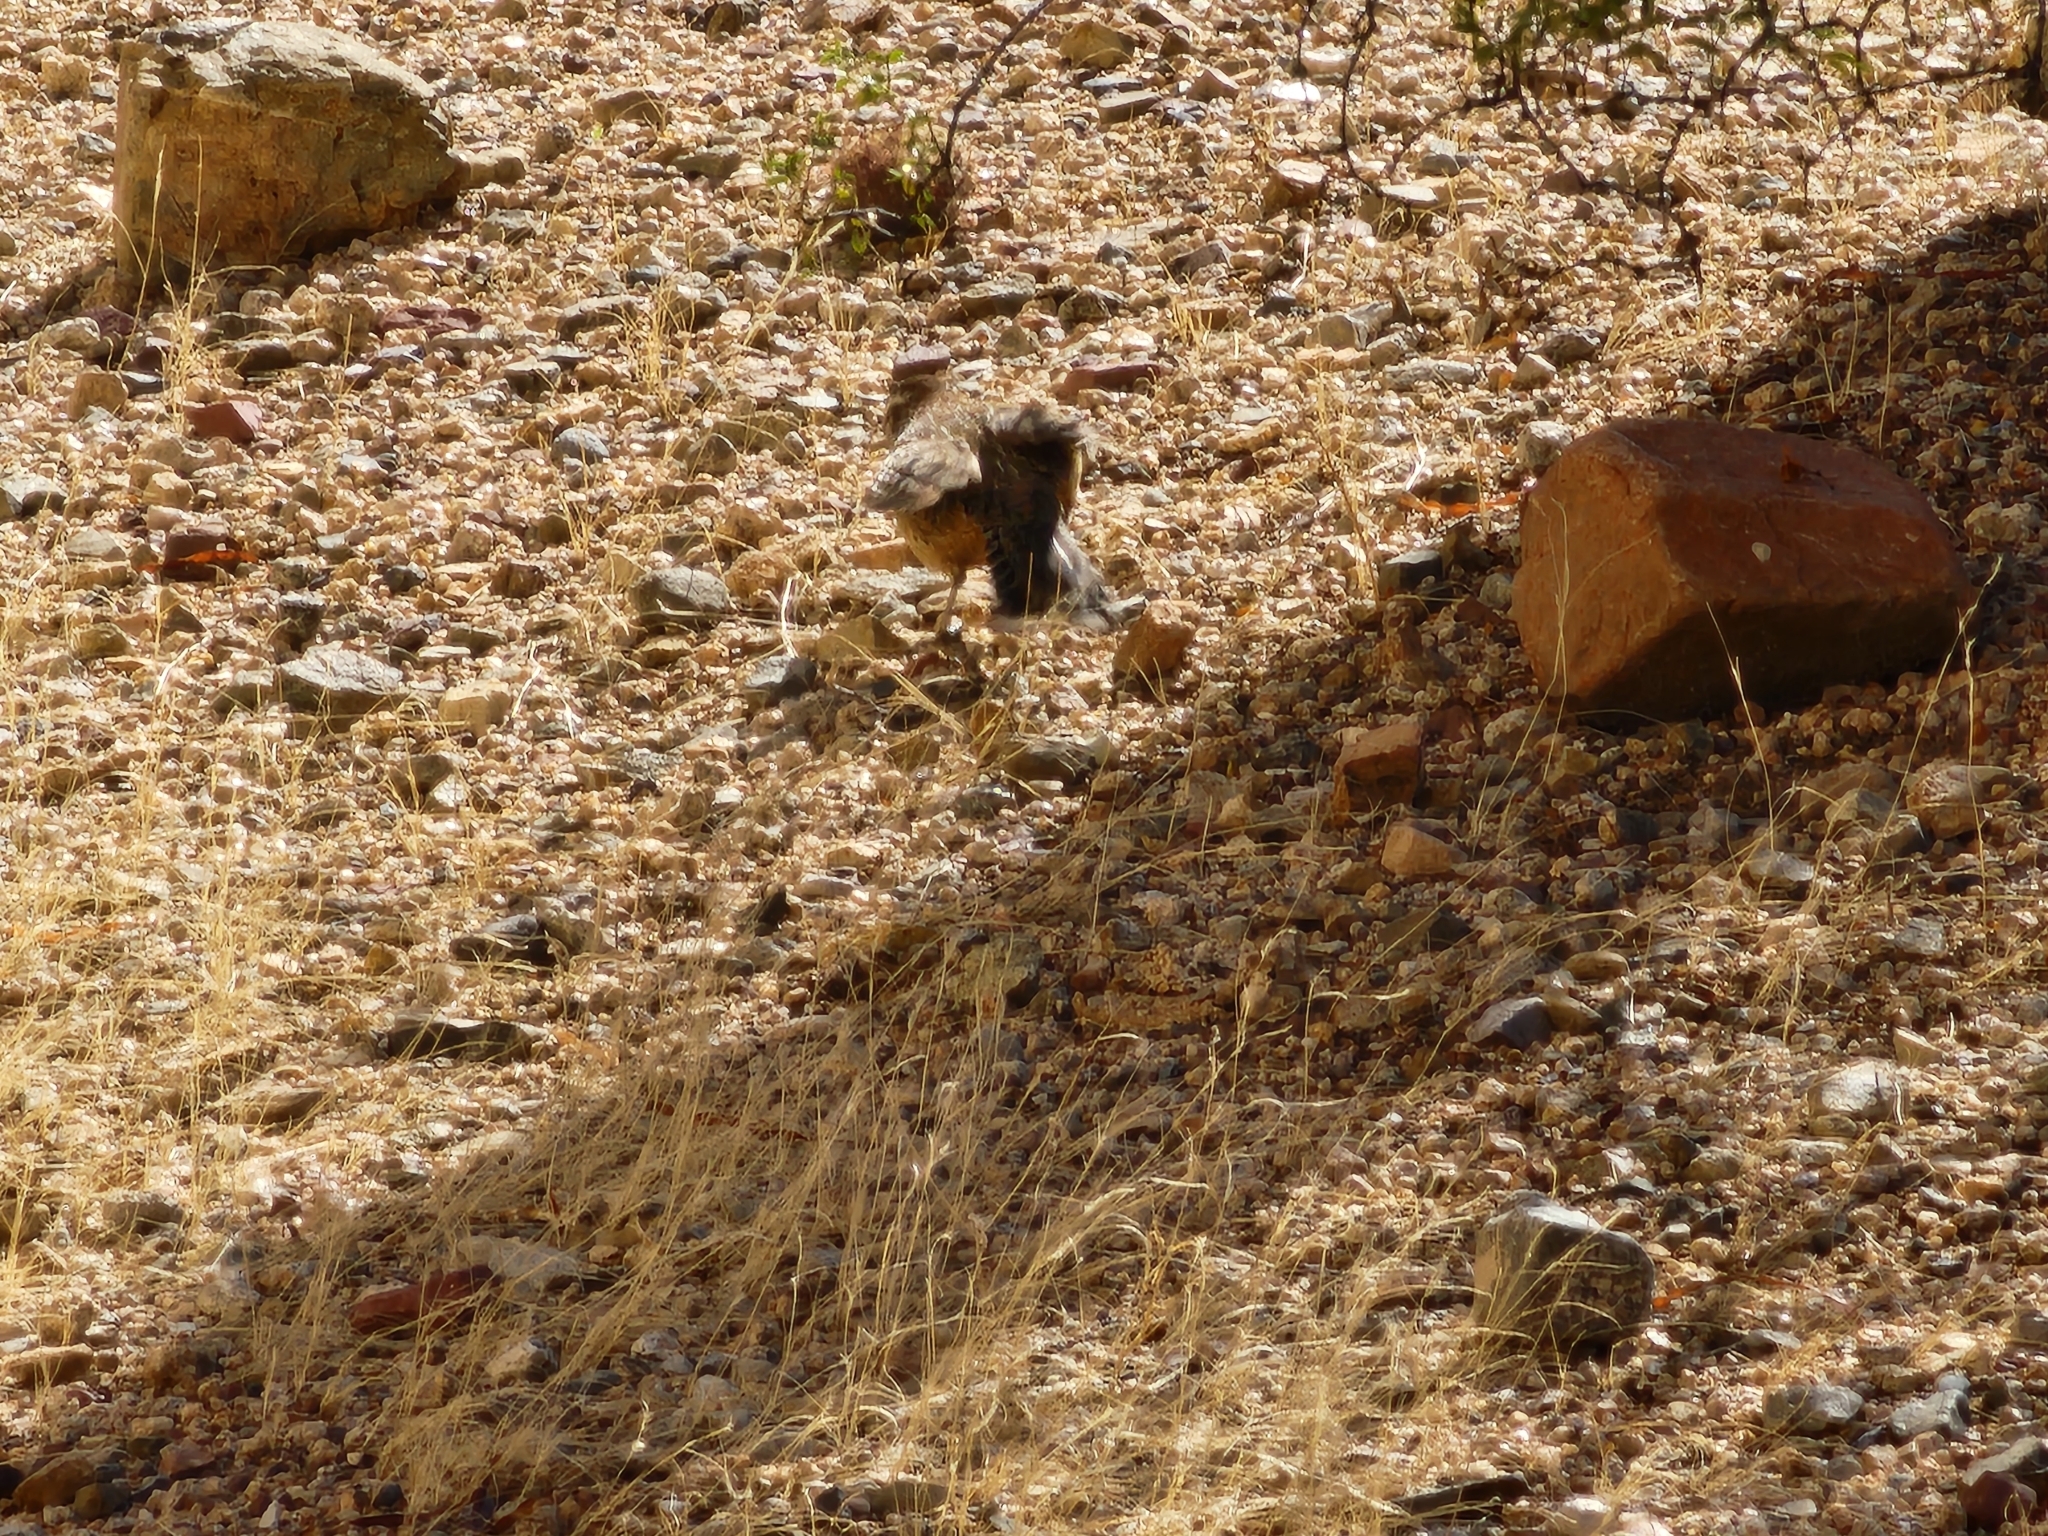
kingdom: Animalia
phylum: Chordata
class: Aves
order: Passeriformes
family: Troglodytidae
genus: Campylorhynchus
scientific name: Campylorhynchus brunneicapillus
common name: Cactus wren
